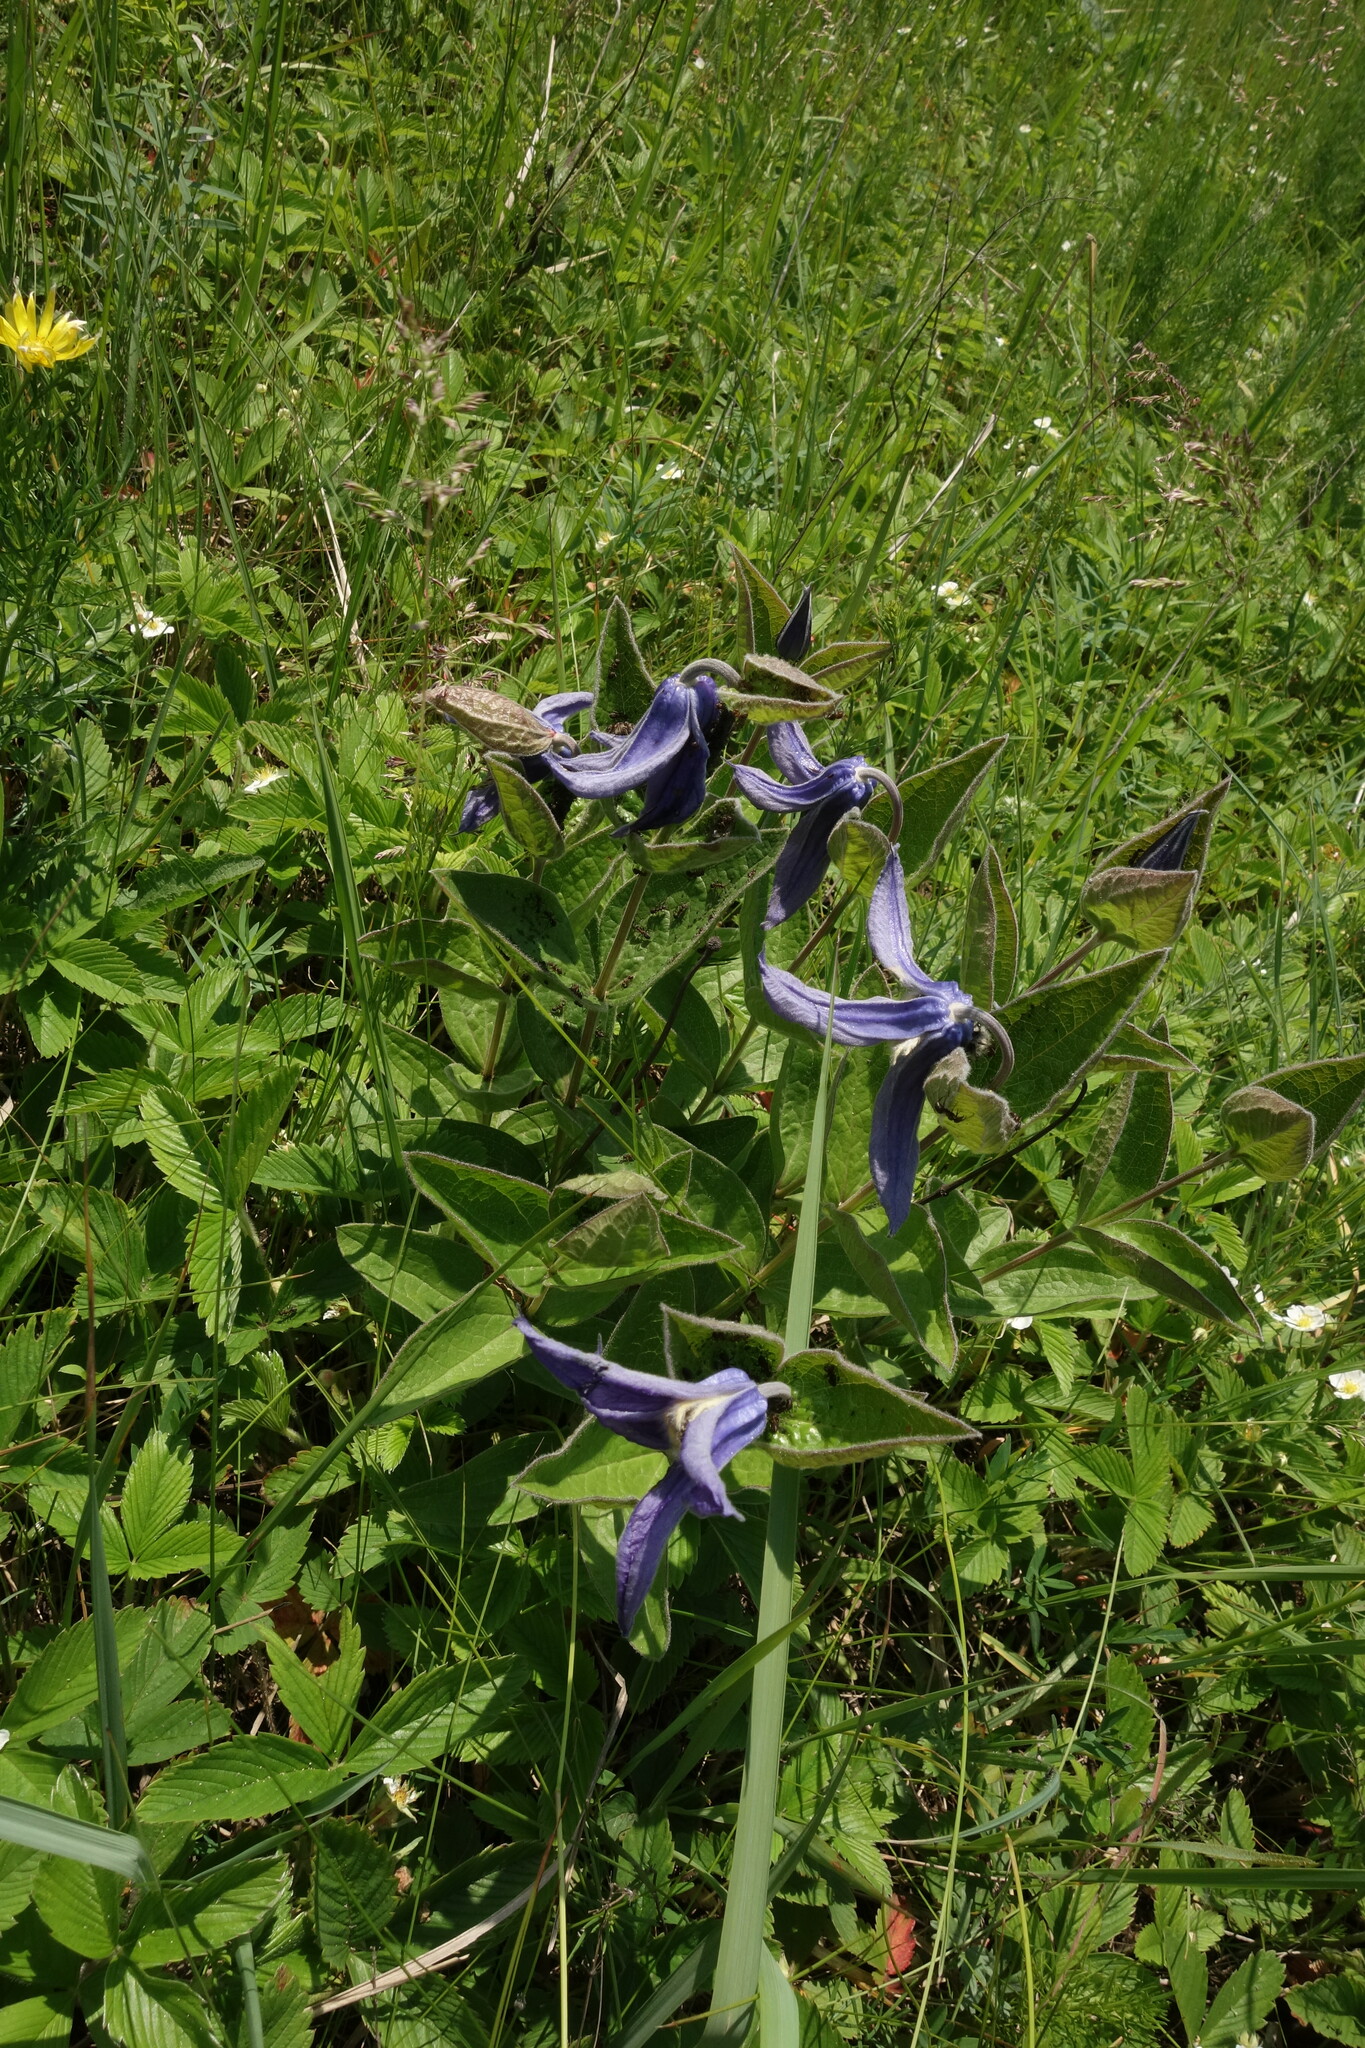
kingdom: Plantae
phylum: Tracheophyta
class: Magnoliopsida
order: Ranunculales
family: Ranunculaceae
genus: Clematis
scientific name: Clematis integrifolia
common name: Solitary clematis
